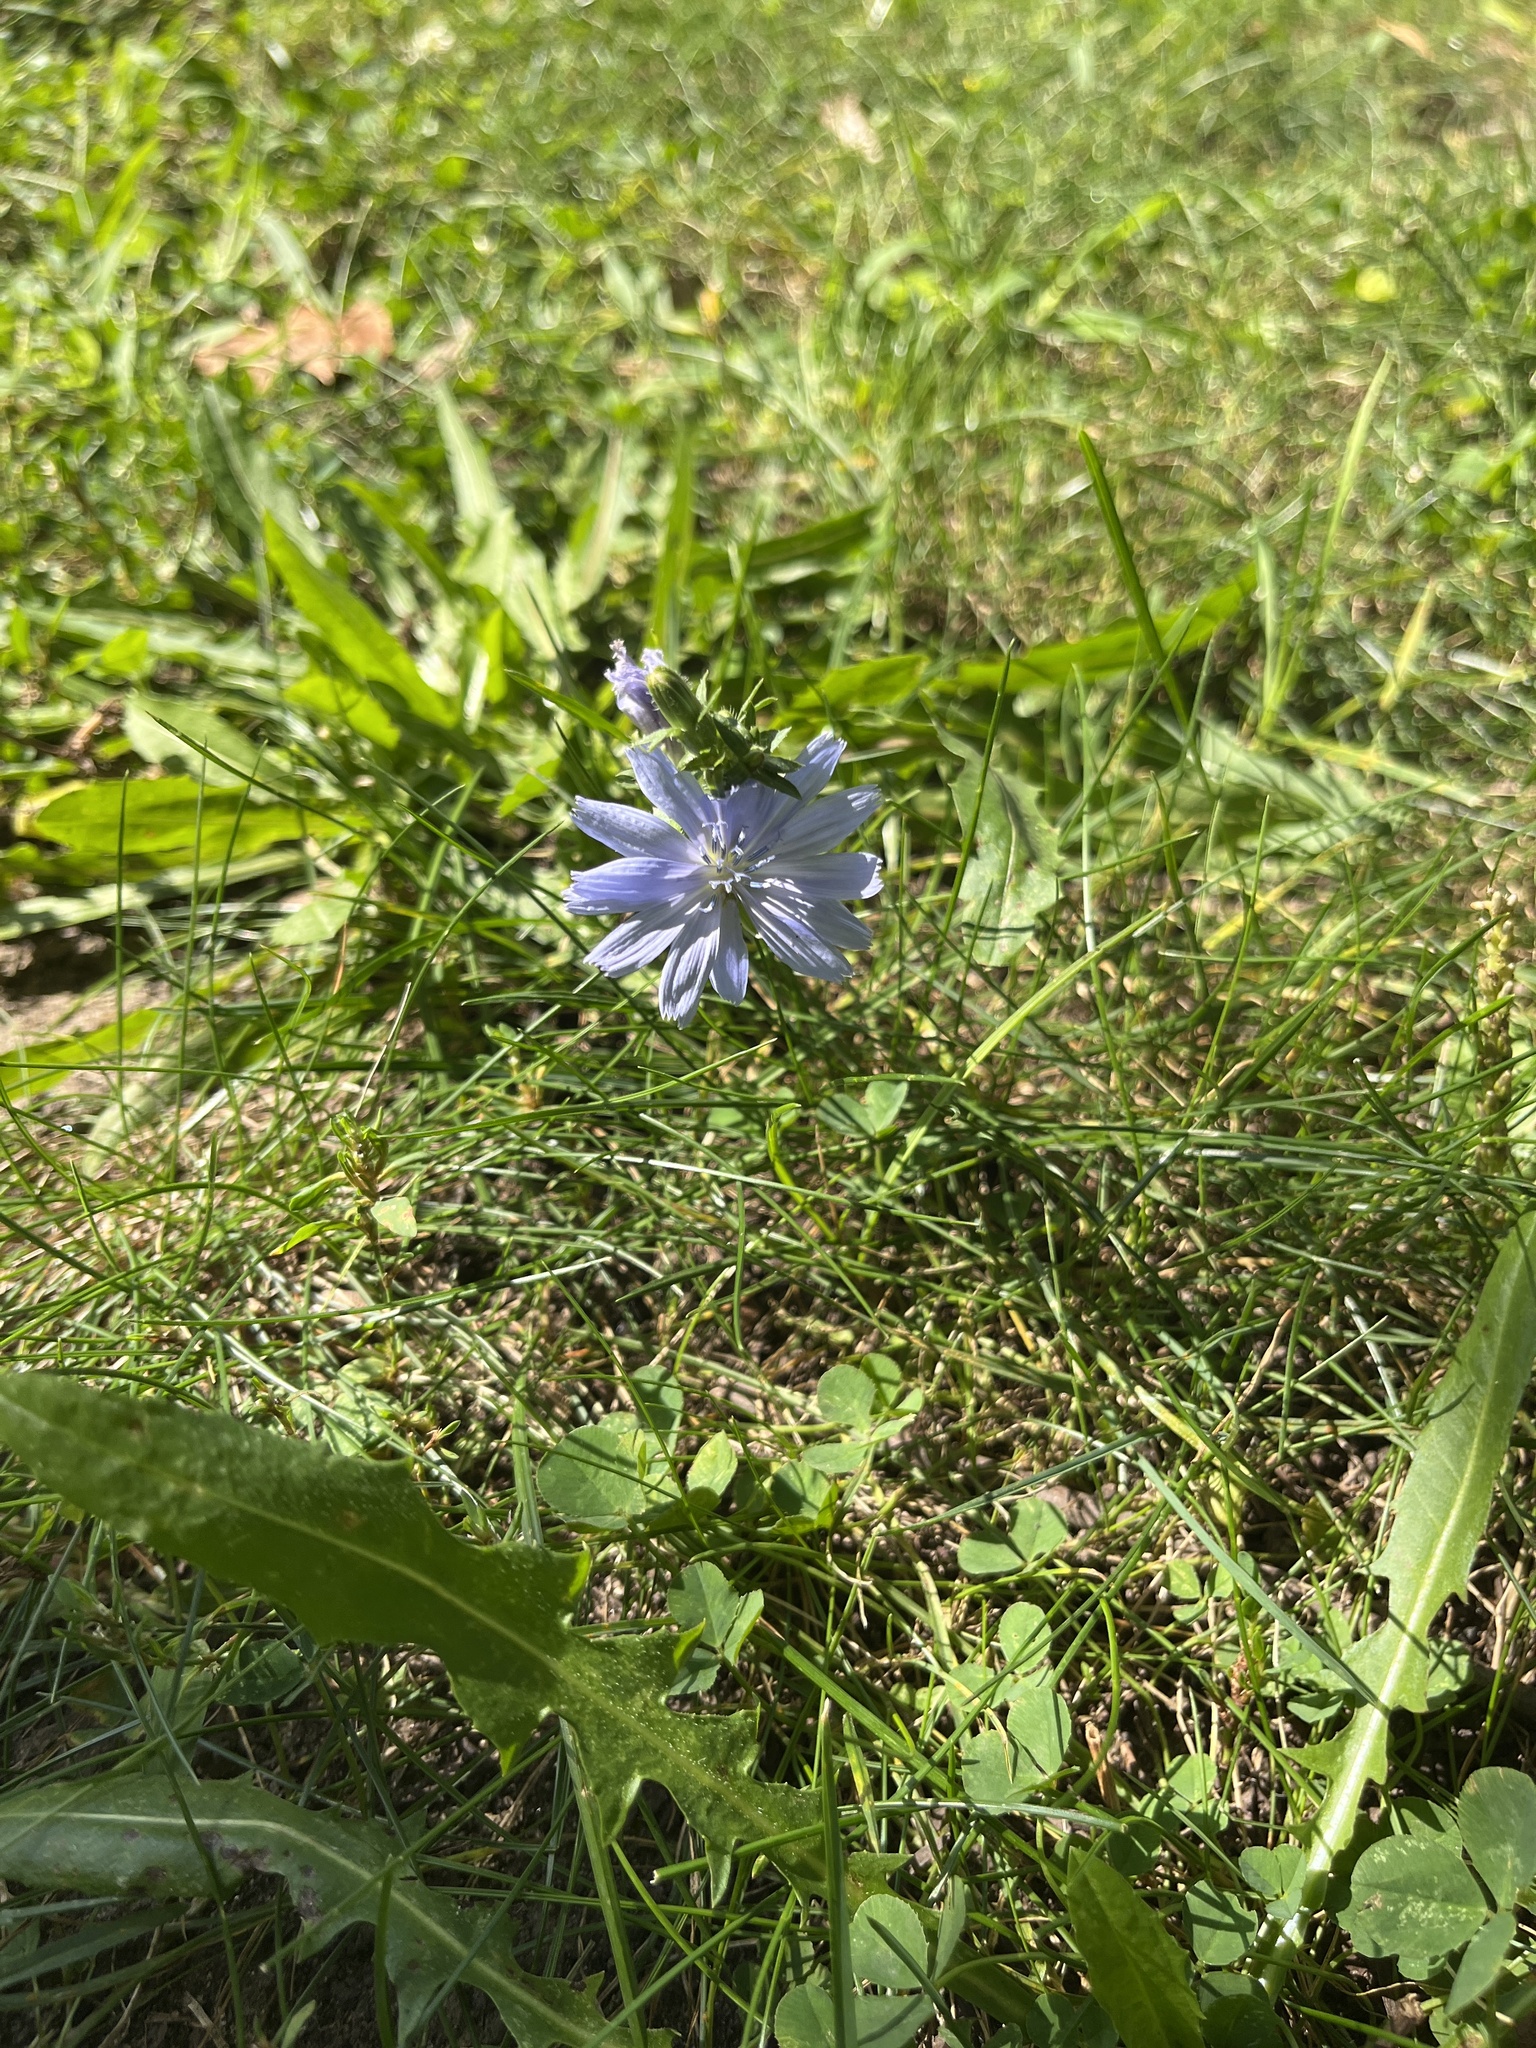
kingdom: Plantae
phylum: Tracheophyta
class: Magnoliopsida
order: Asterales
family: Asteraceae
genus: Cichorium
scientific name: Cichorium intybus
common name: Chicory
